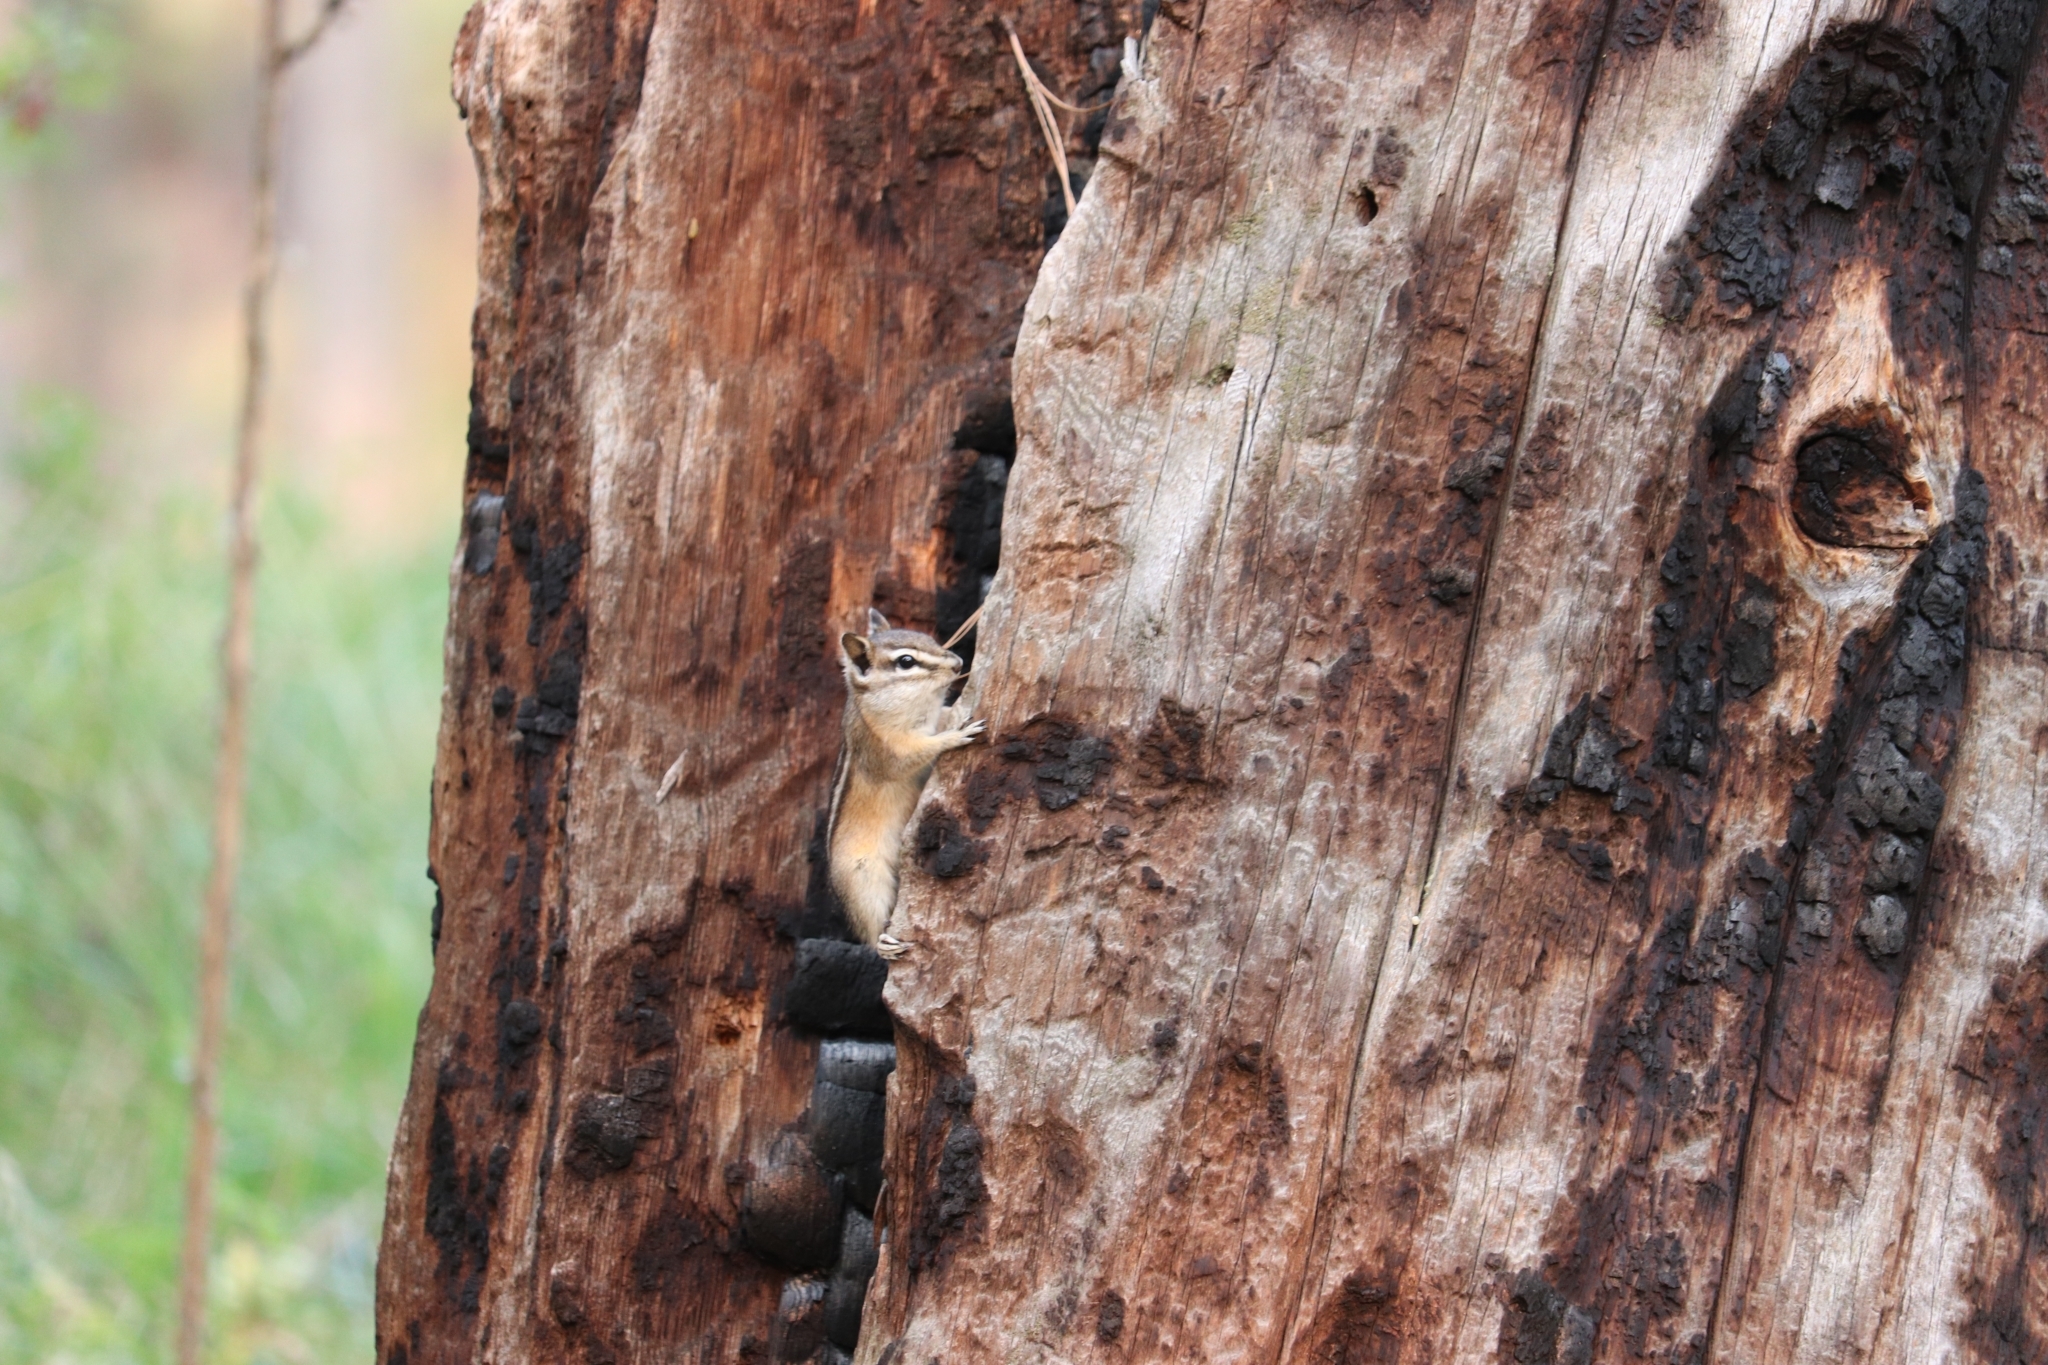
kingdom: Animalia
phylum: Chordata
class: Mammalia
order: Rodentia
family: Sciuridae
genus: Tamias
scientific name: Tamias amoenus
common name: Yellow-pine chipmunk
